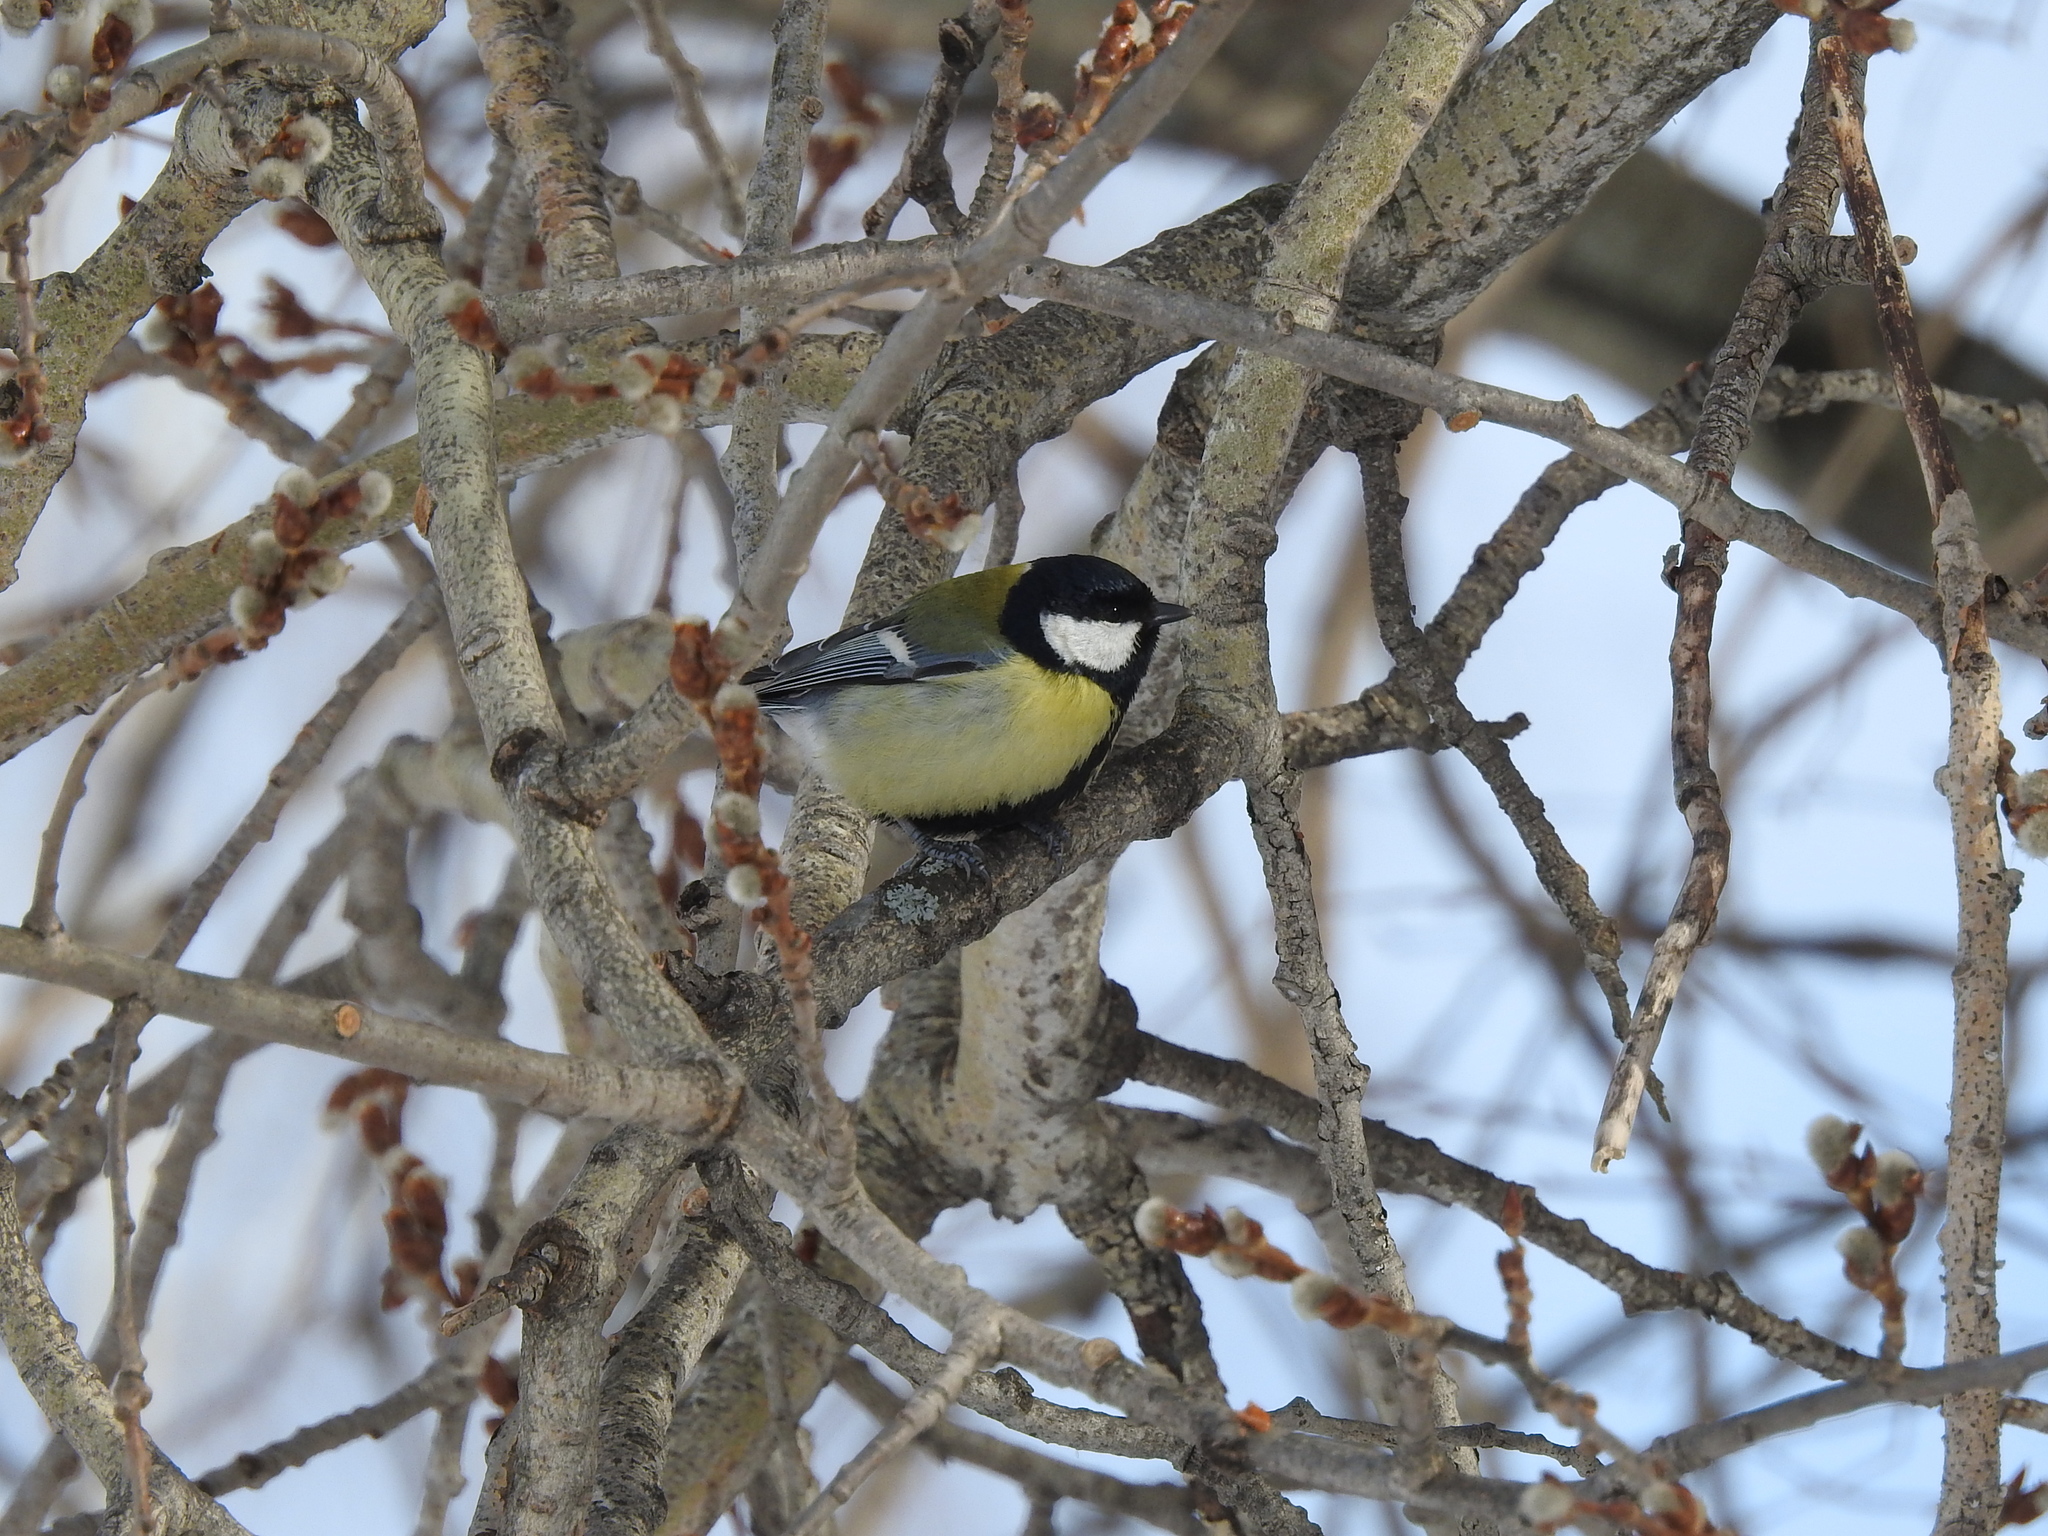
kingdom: Animalia
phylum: Chordata
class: Aves
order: Passeriformes
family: Paridae
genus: Parus
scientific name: Parus major
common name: Great tit
